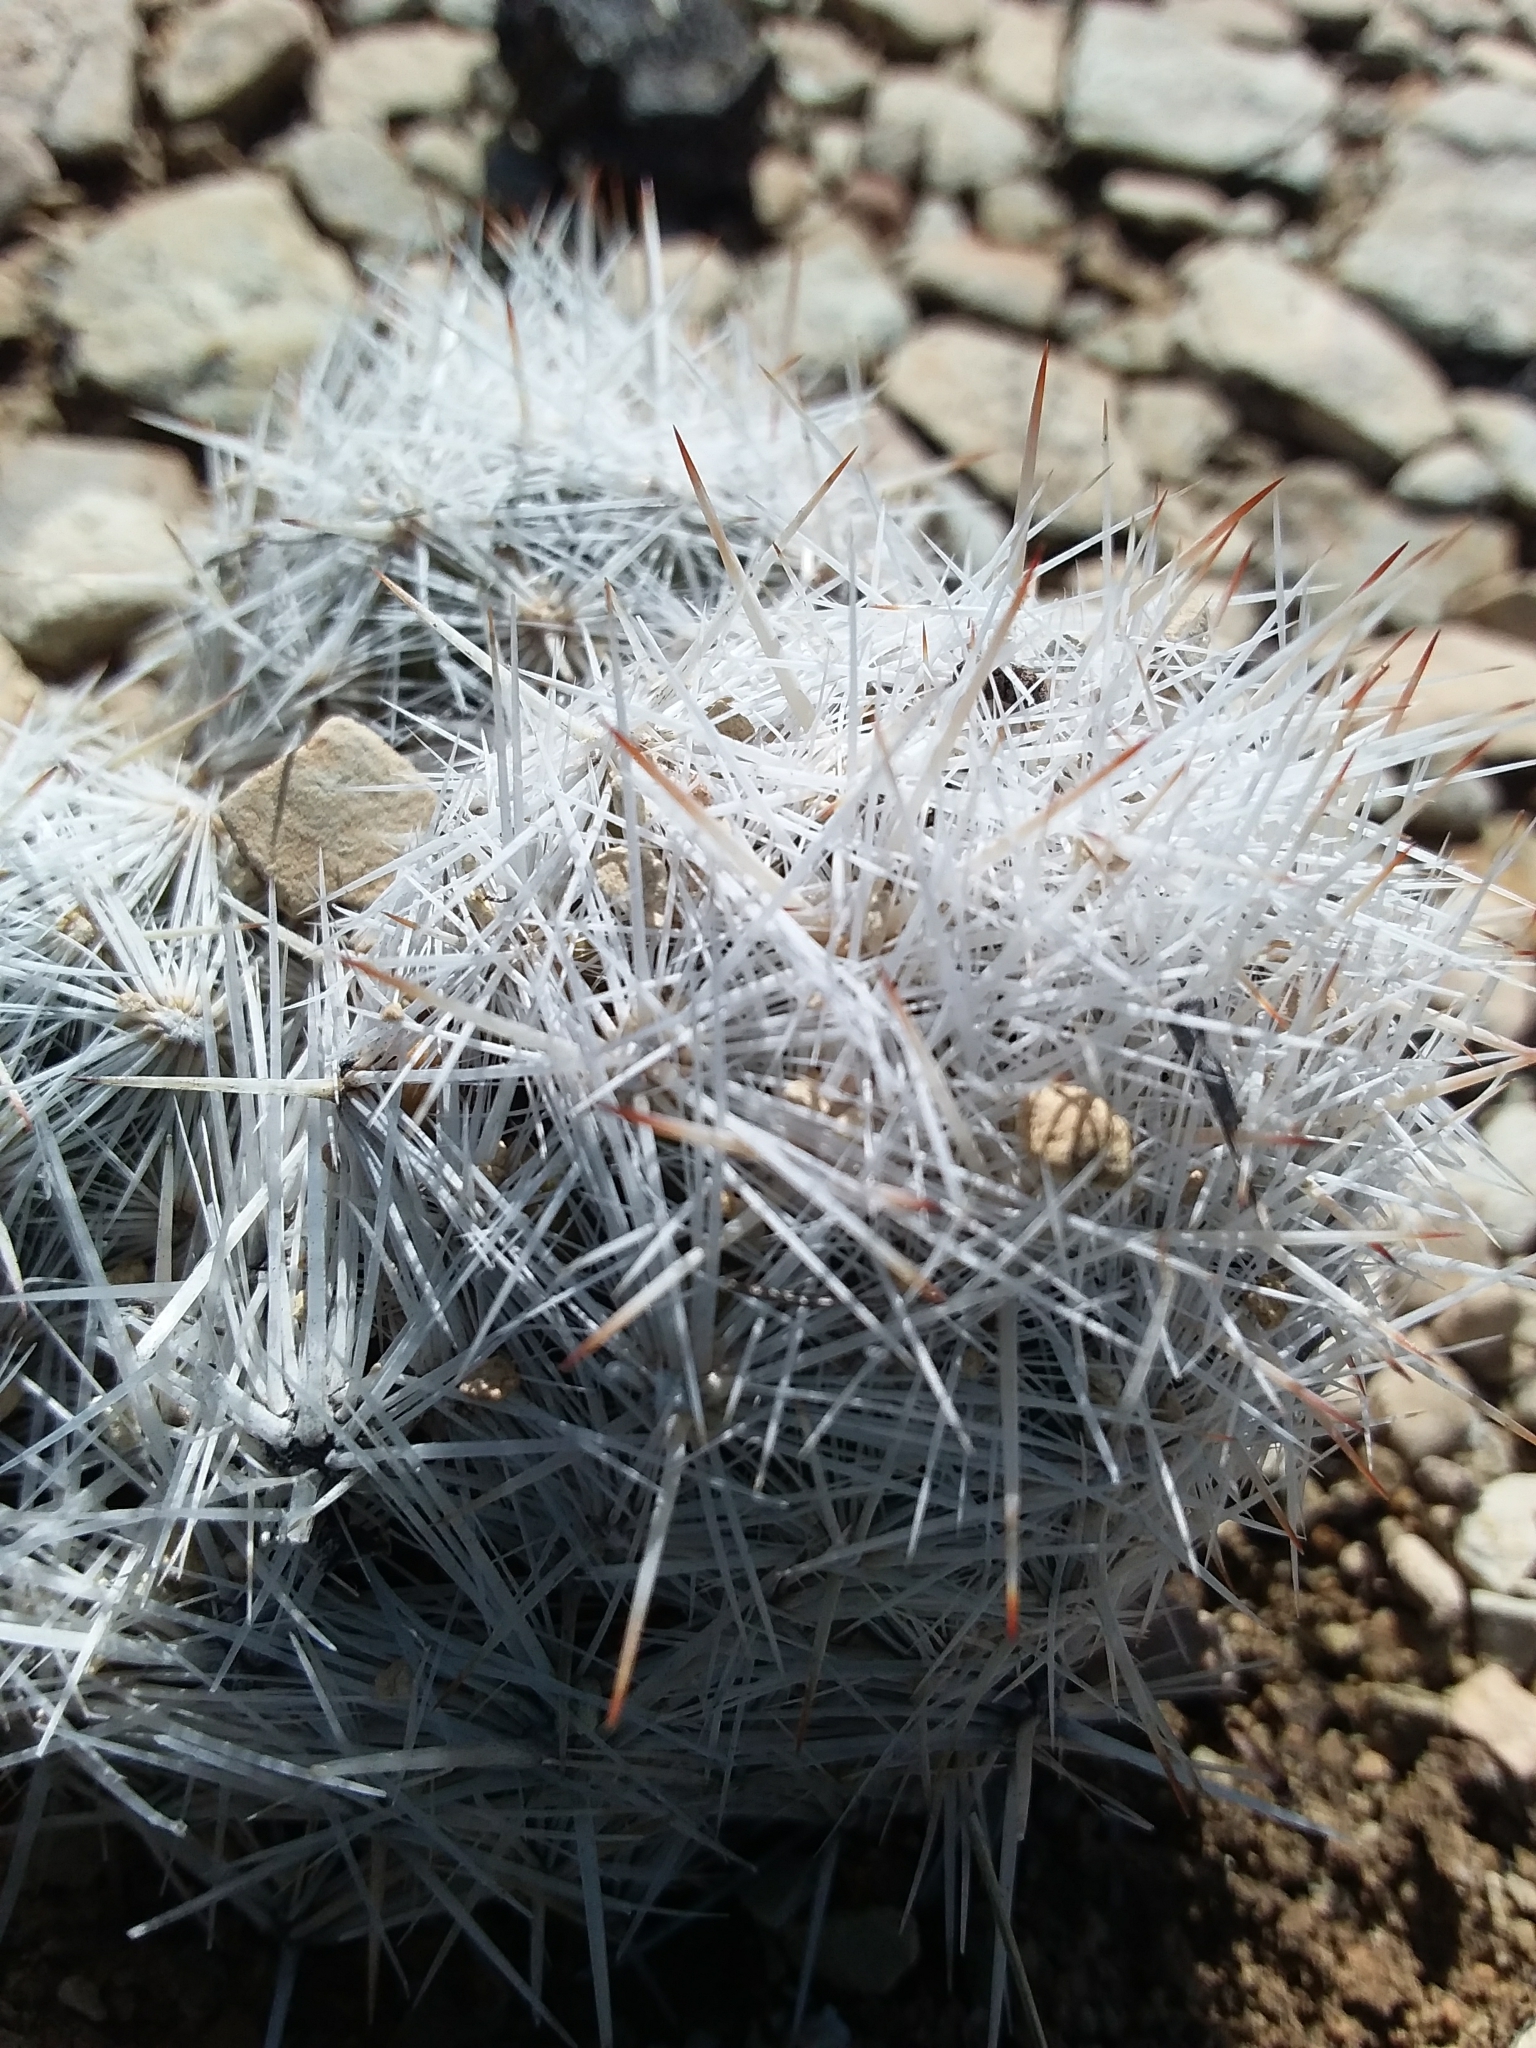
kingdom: Plantae
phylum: Tracheophyta
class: Magnoliopsida
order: Caryophyllales
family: Cactaceae
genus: Pelecyphora
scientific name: Pelecyphora sneedii
